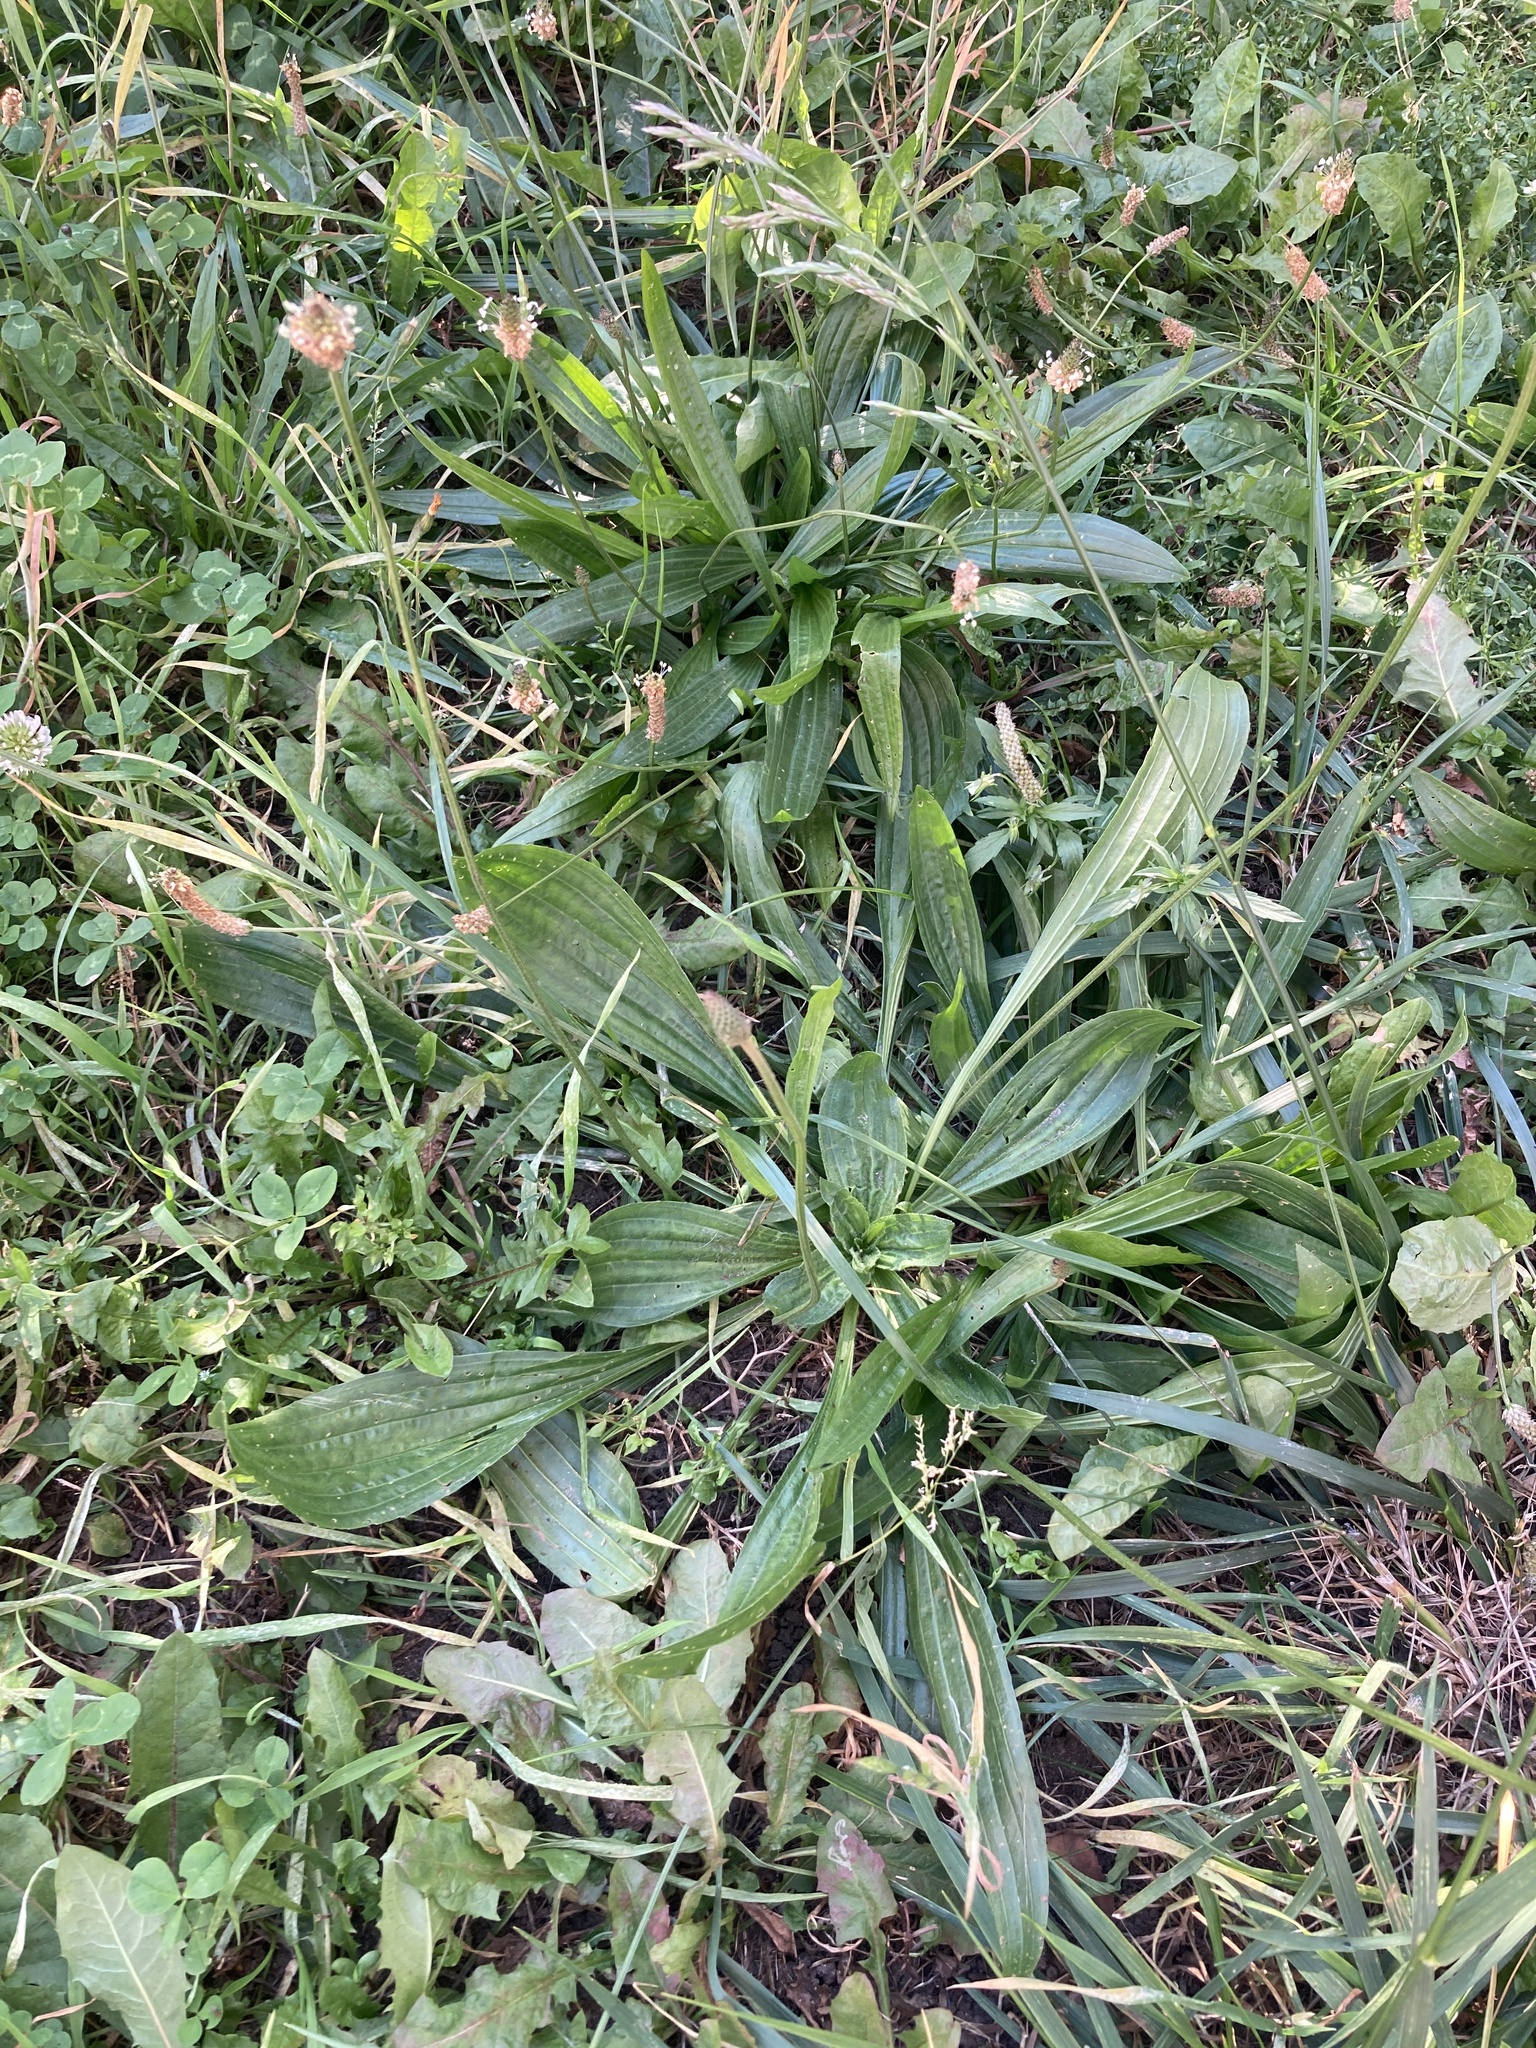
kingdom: Plantae
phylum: Tracheophyta
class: Magnoliopsida
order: Lamiales
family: Plantaginaceae
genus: Plantago
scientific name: Plantago lanceolata
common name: Ribwort plantain
